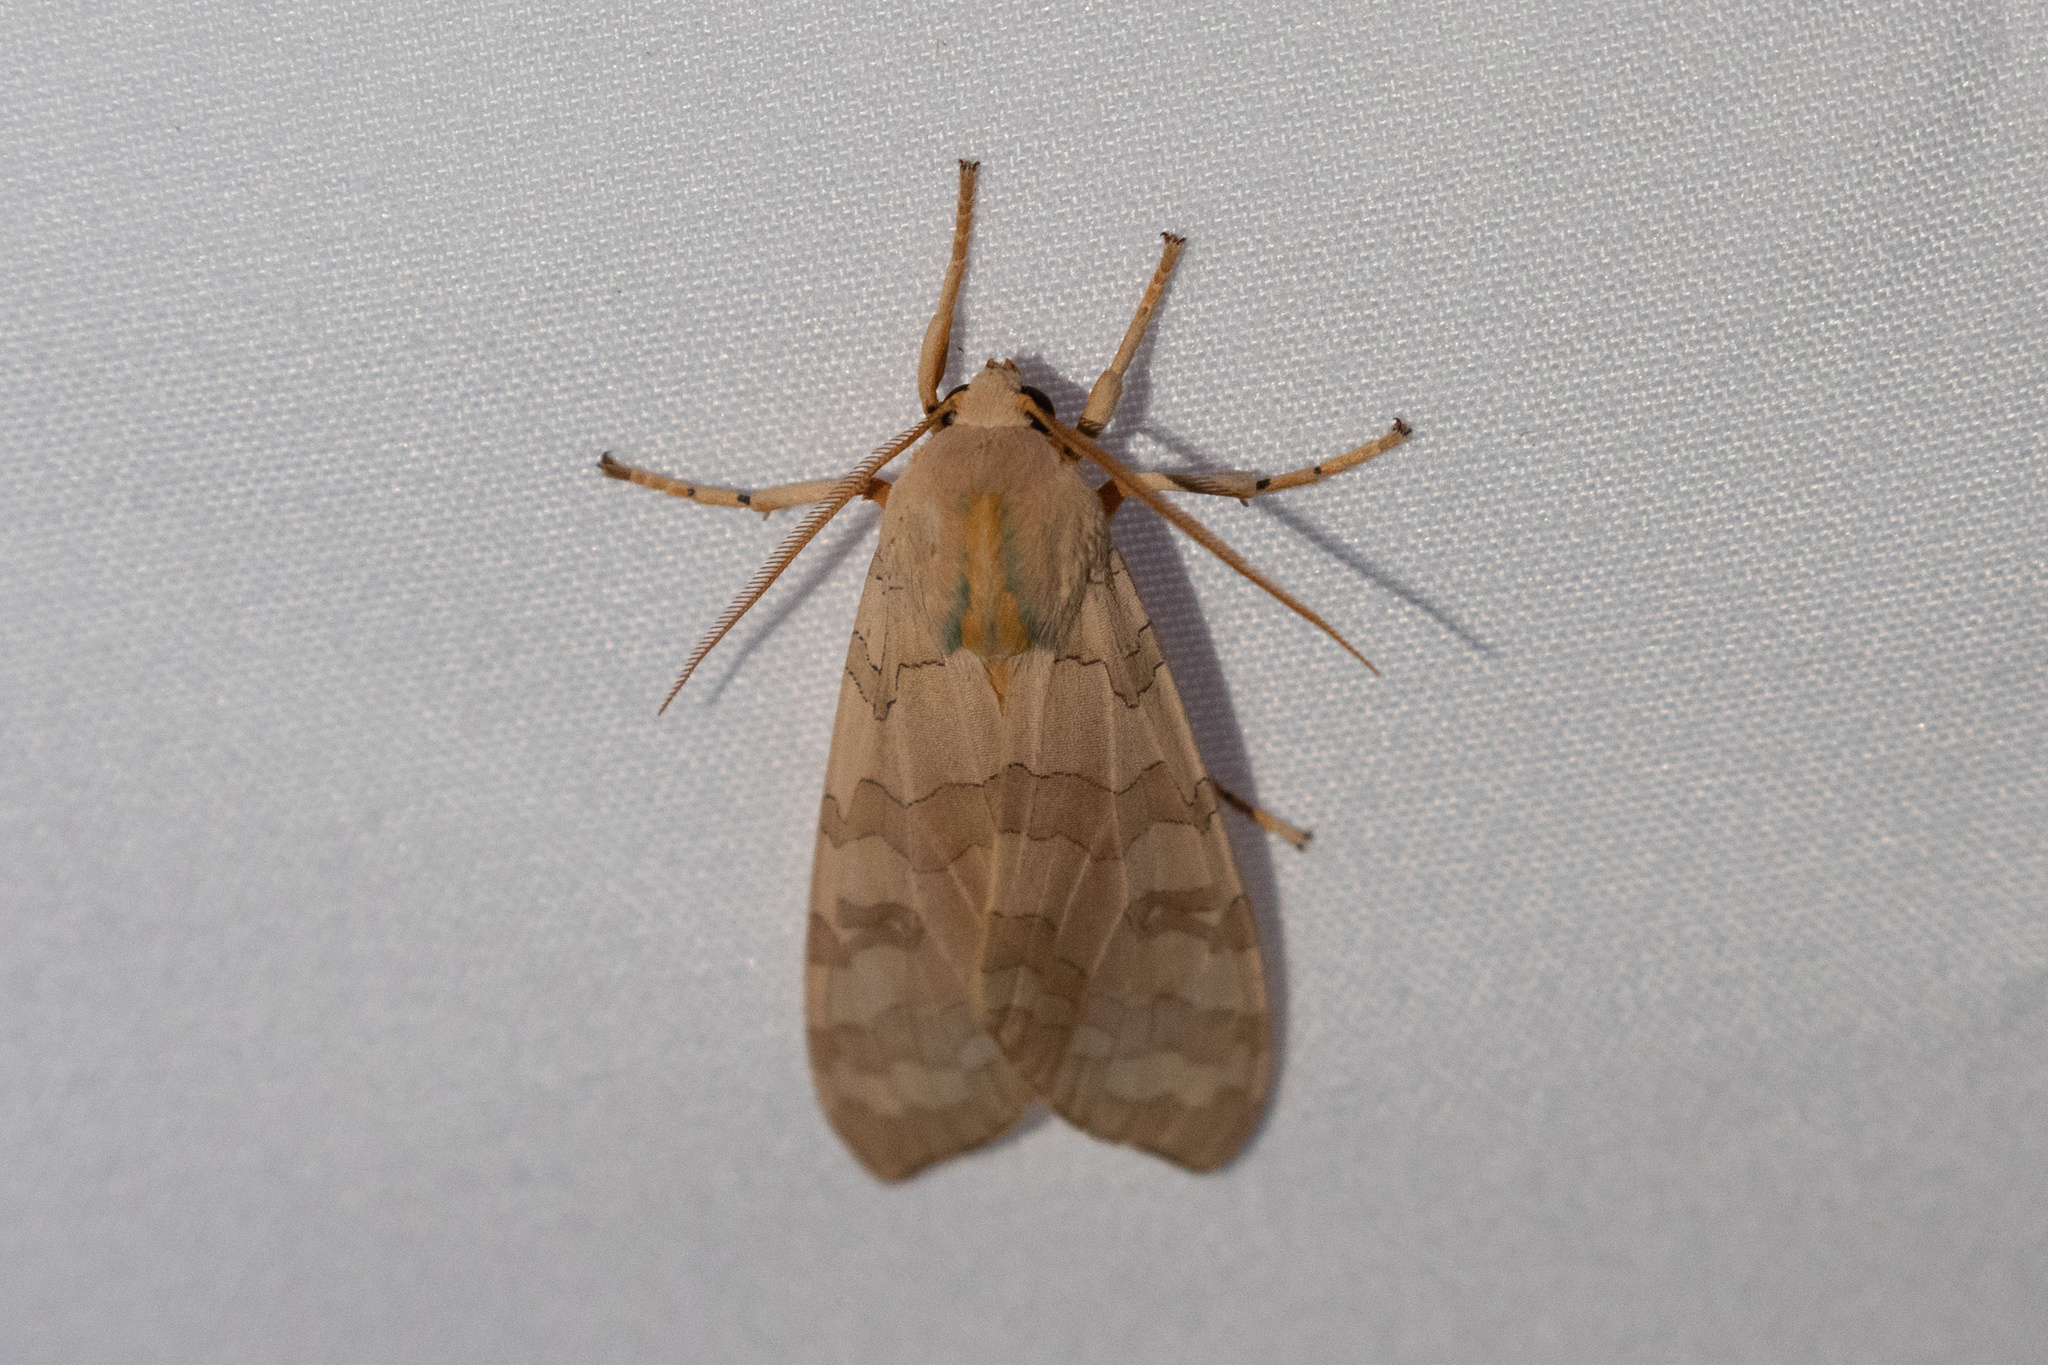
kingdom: Animalia
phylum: Arthropoda
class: Insecta
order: Lepidoptera
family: Erebidae
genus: Halysidota
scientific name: Halysidota
